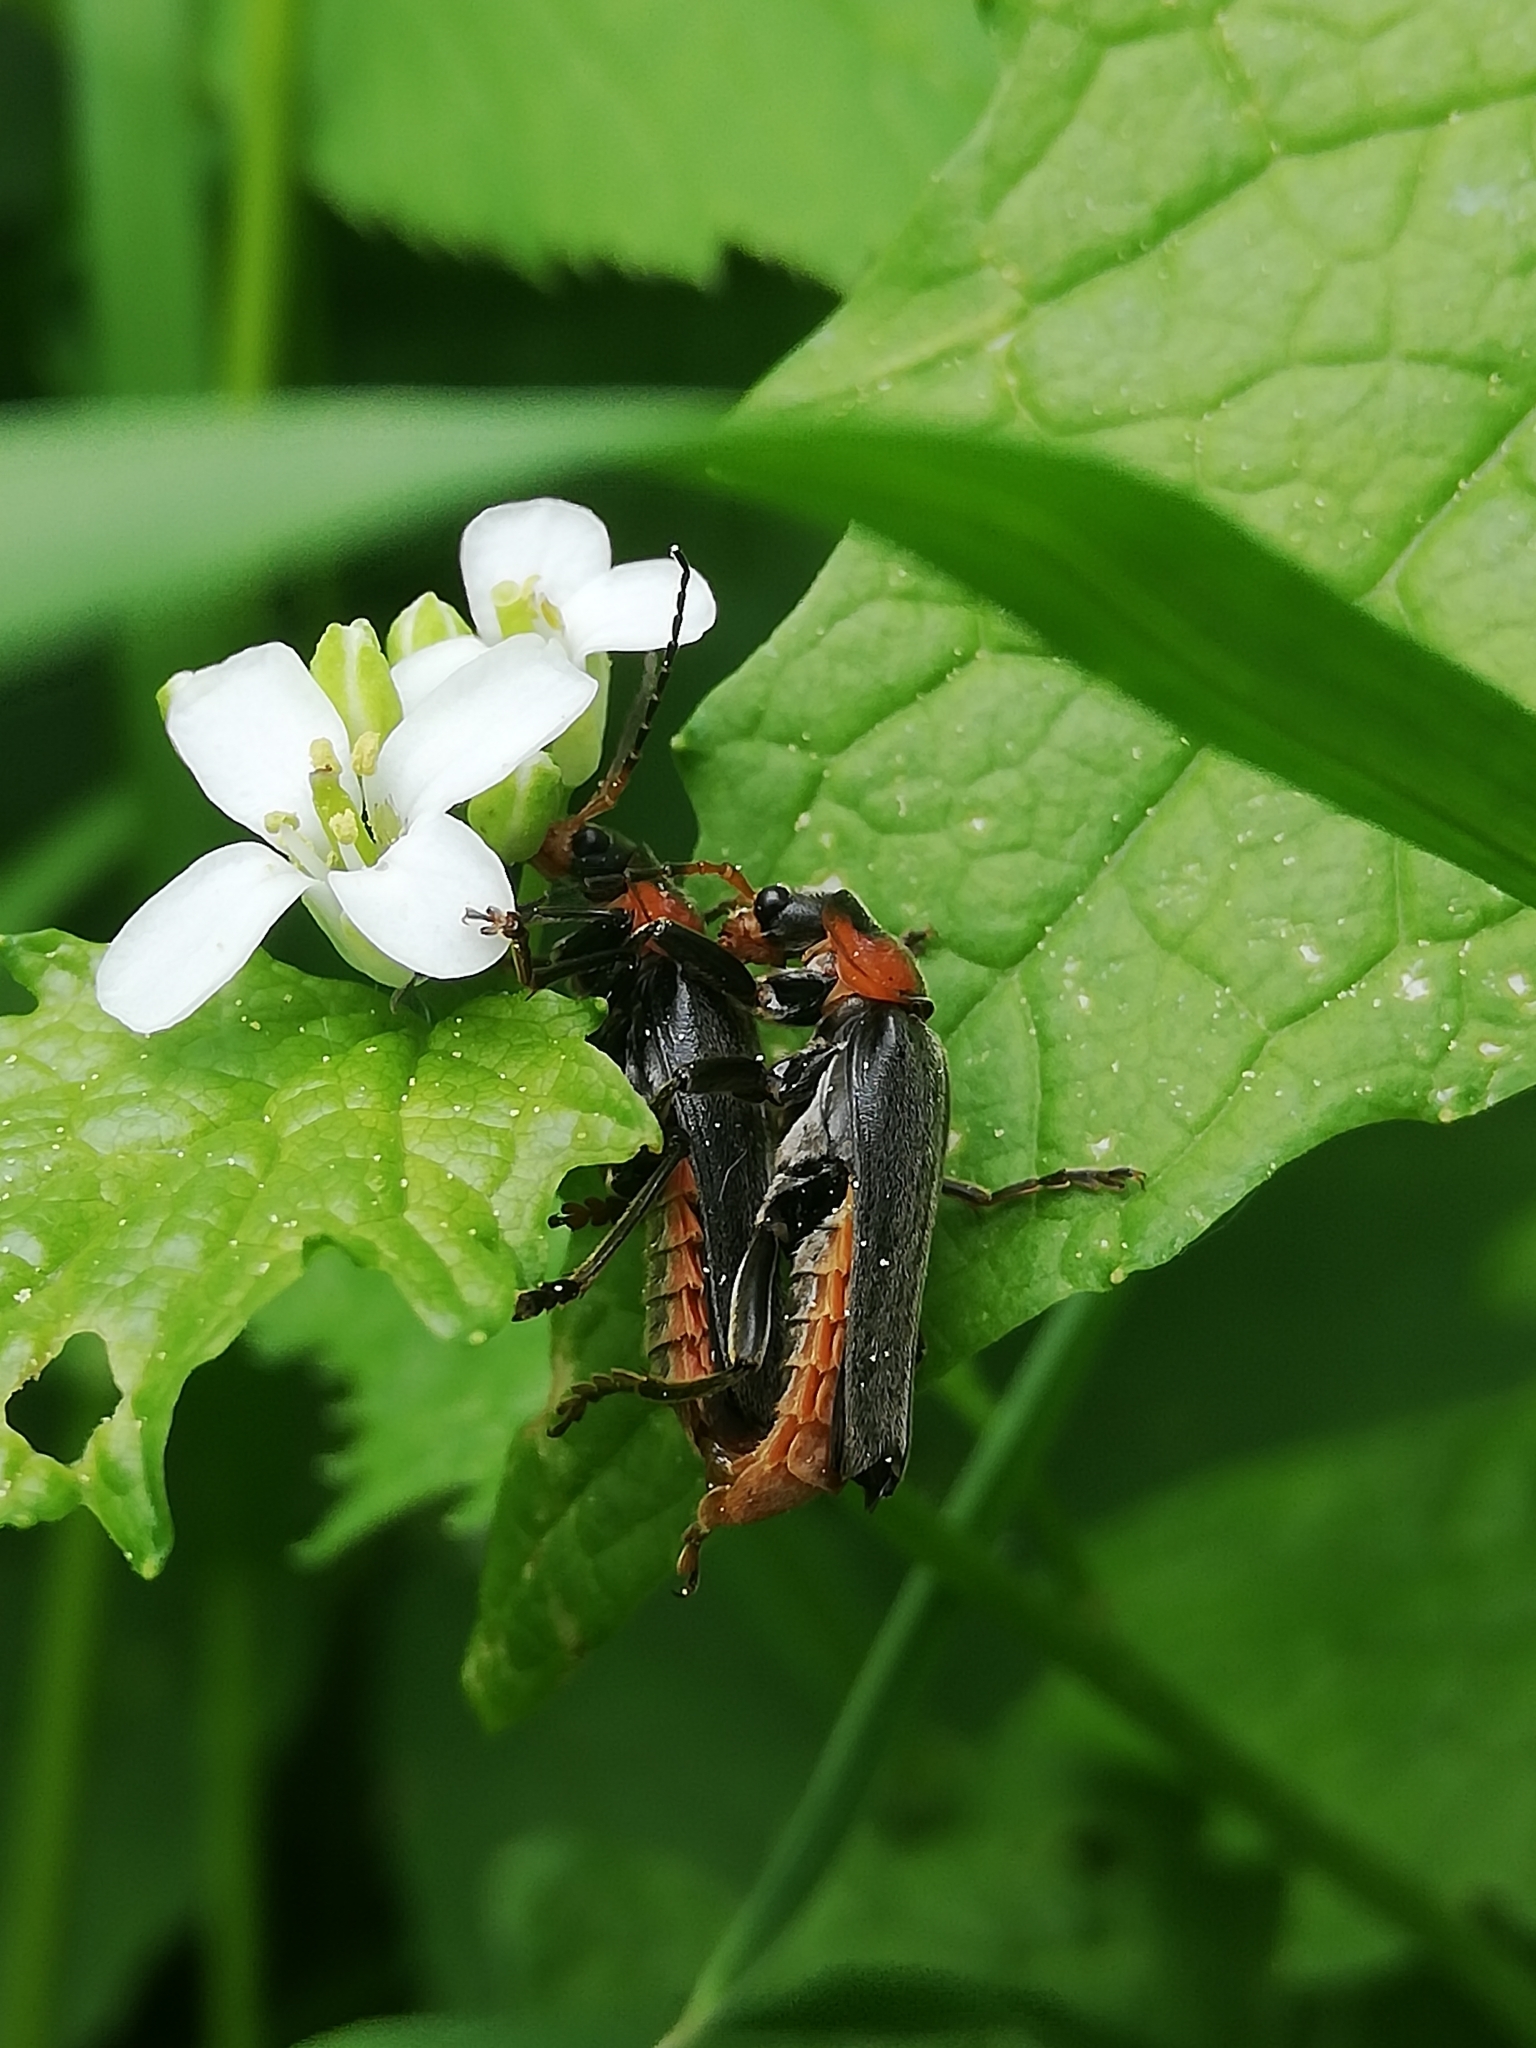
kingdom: Animalia
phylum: Arthropoda
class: Insecta
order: Coleoptera
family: Cantharidae
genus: Cantharis
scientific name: Cantharis fusca
